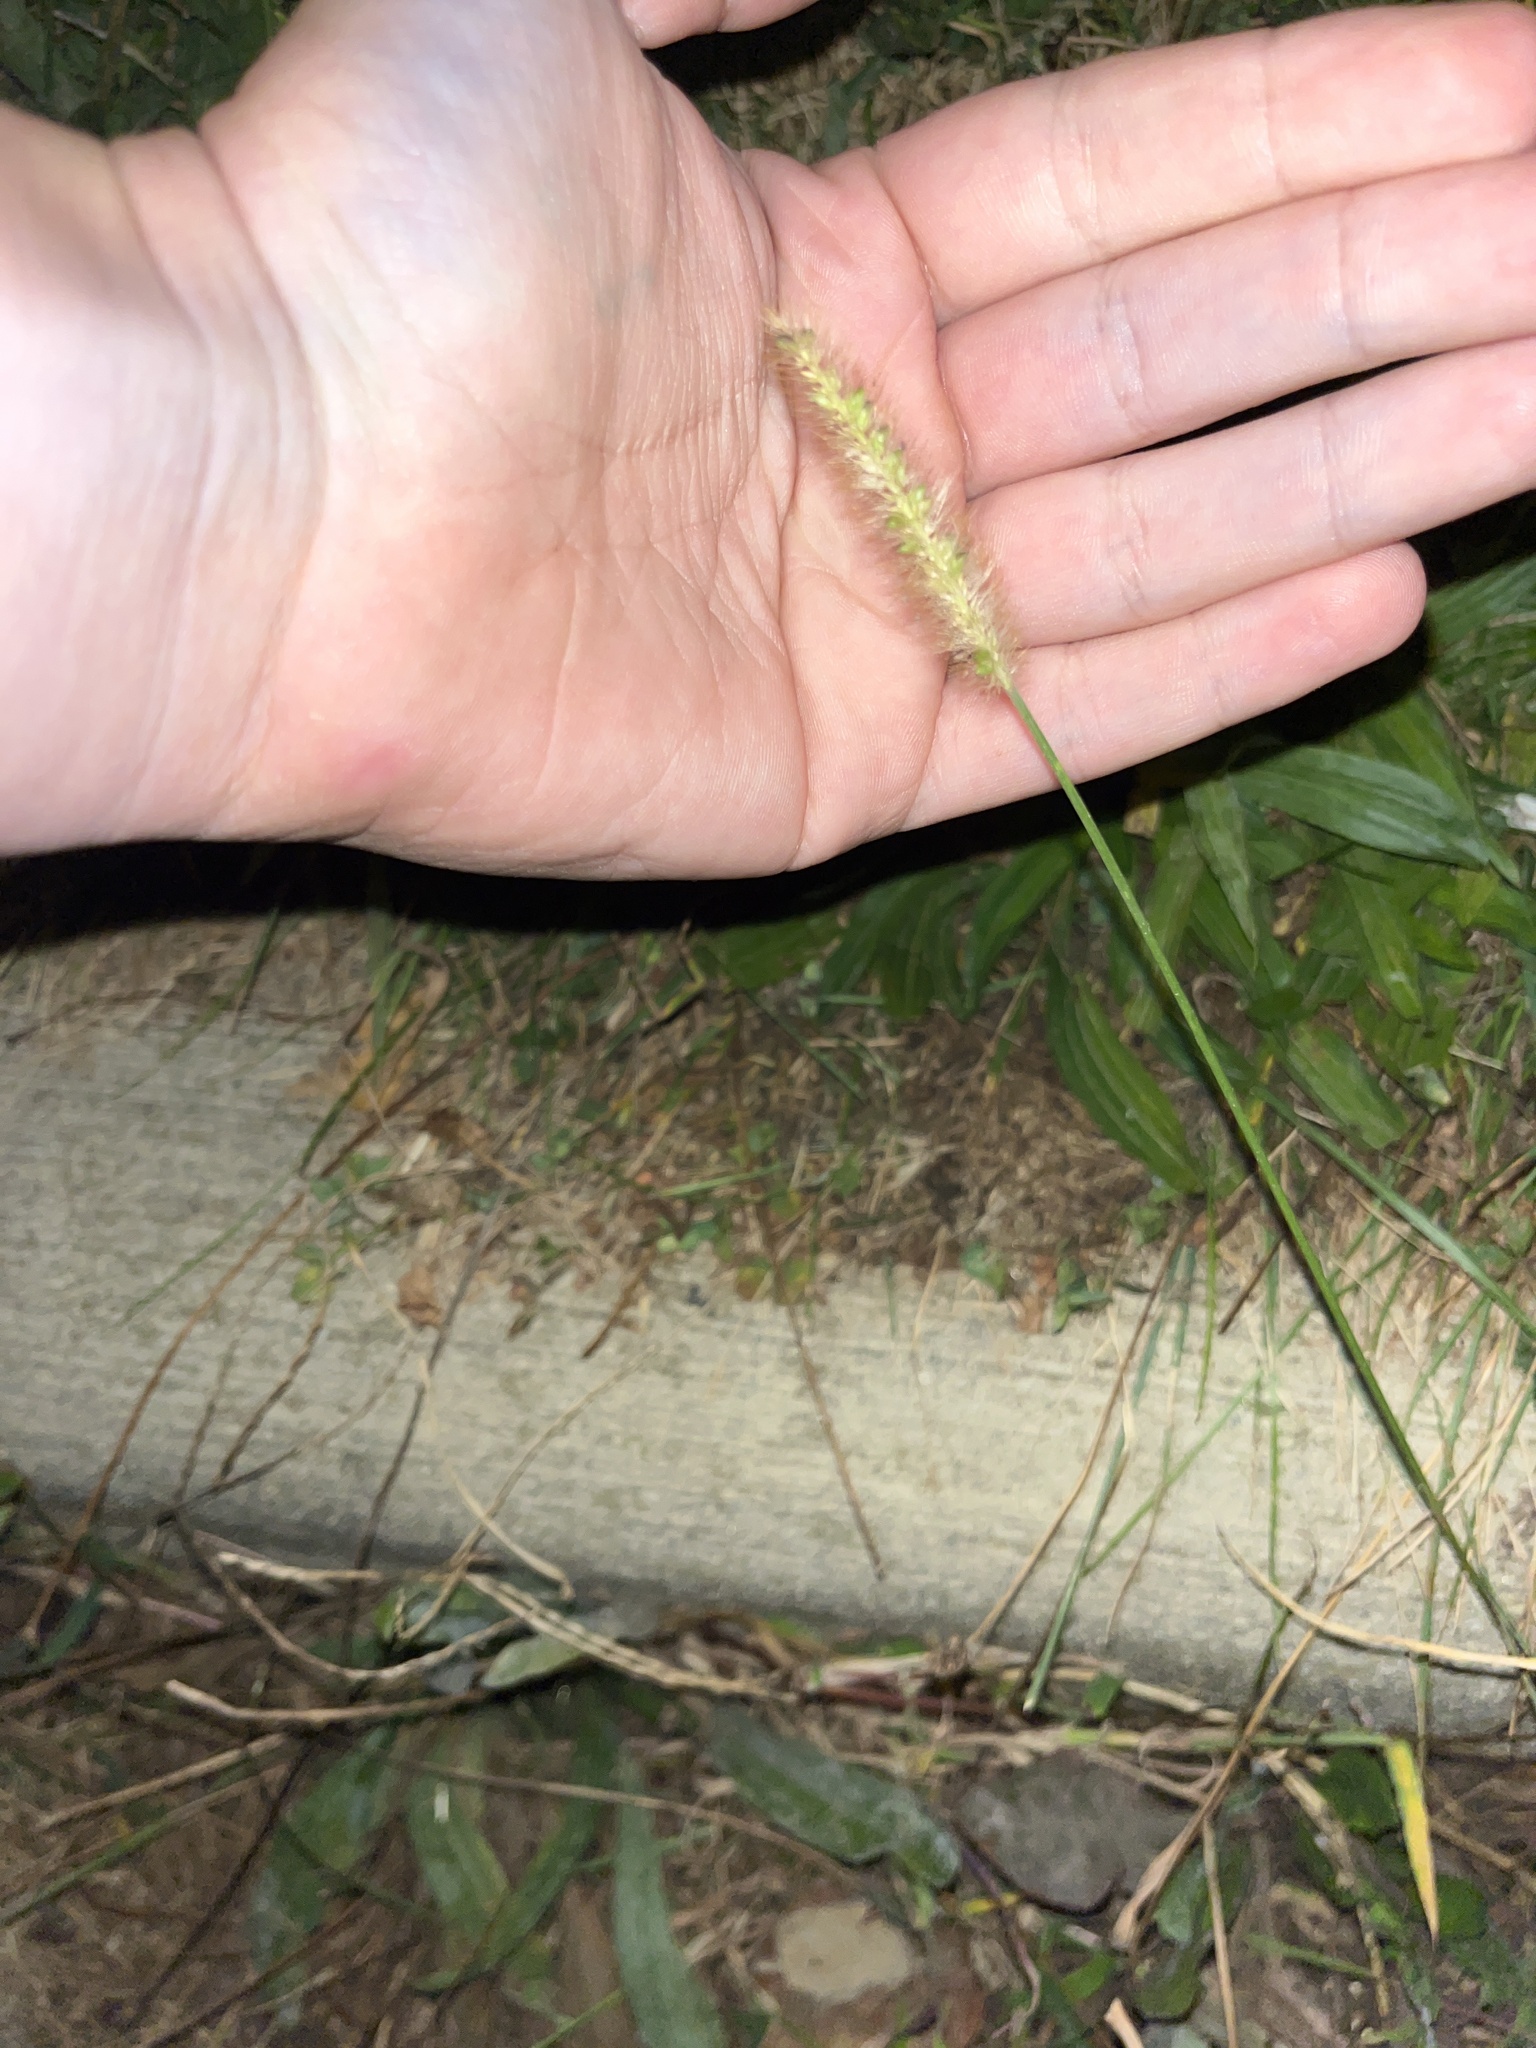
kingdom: Plantae
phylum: Tracheophyta
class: Liliopsida
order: Poales
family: Poaceae
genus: Setaria
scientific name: Setaria pumila
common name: Yellow bristle-grass
